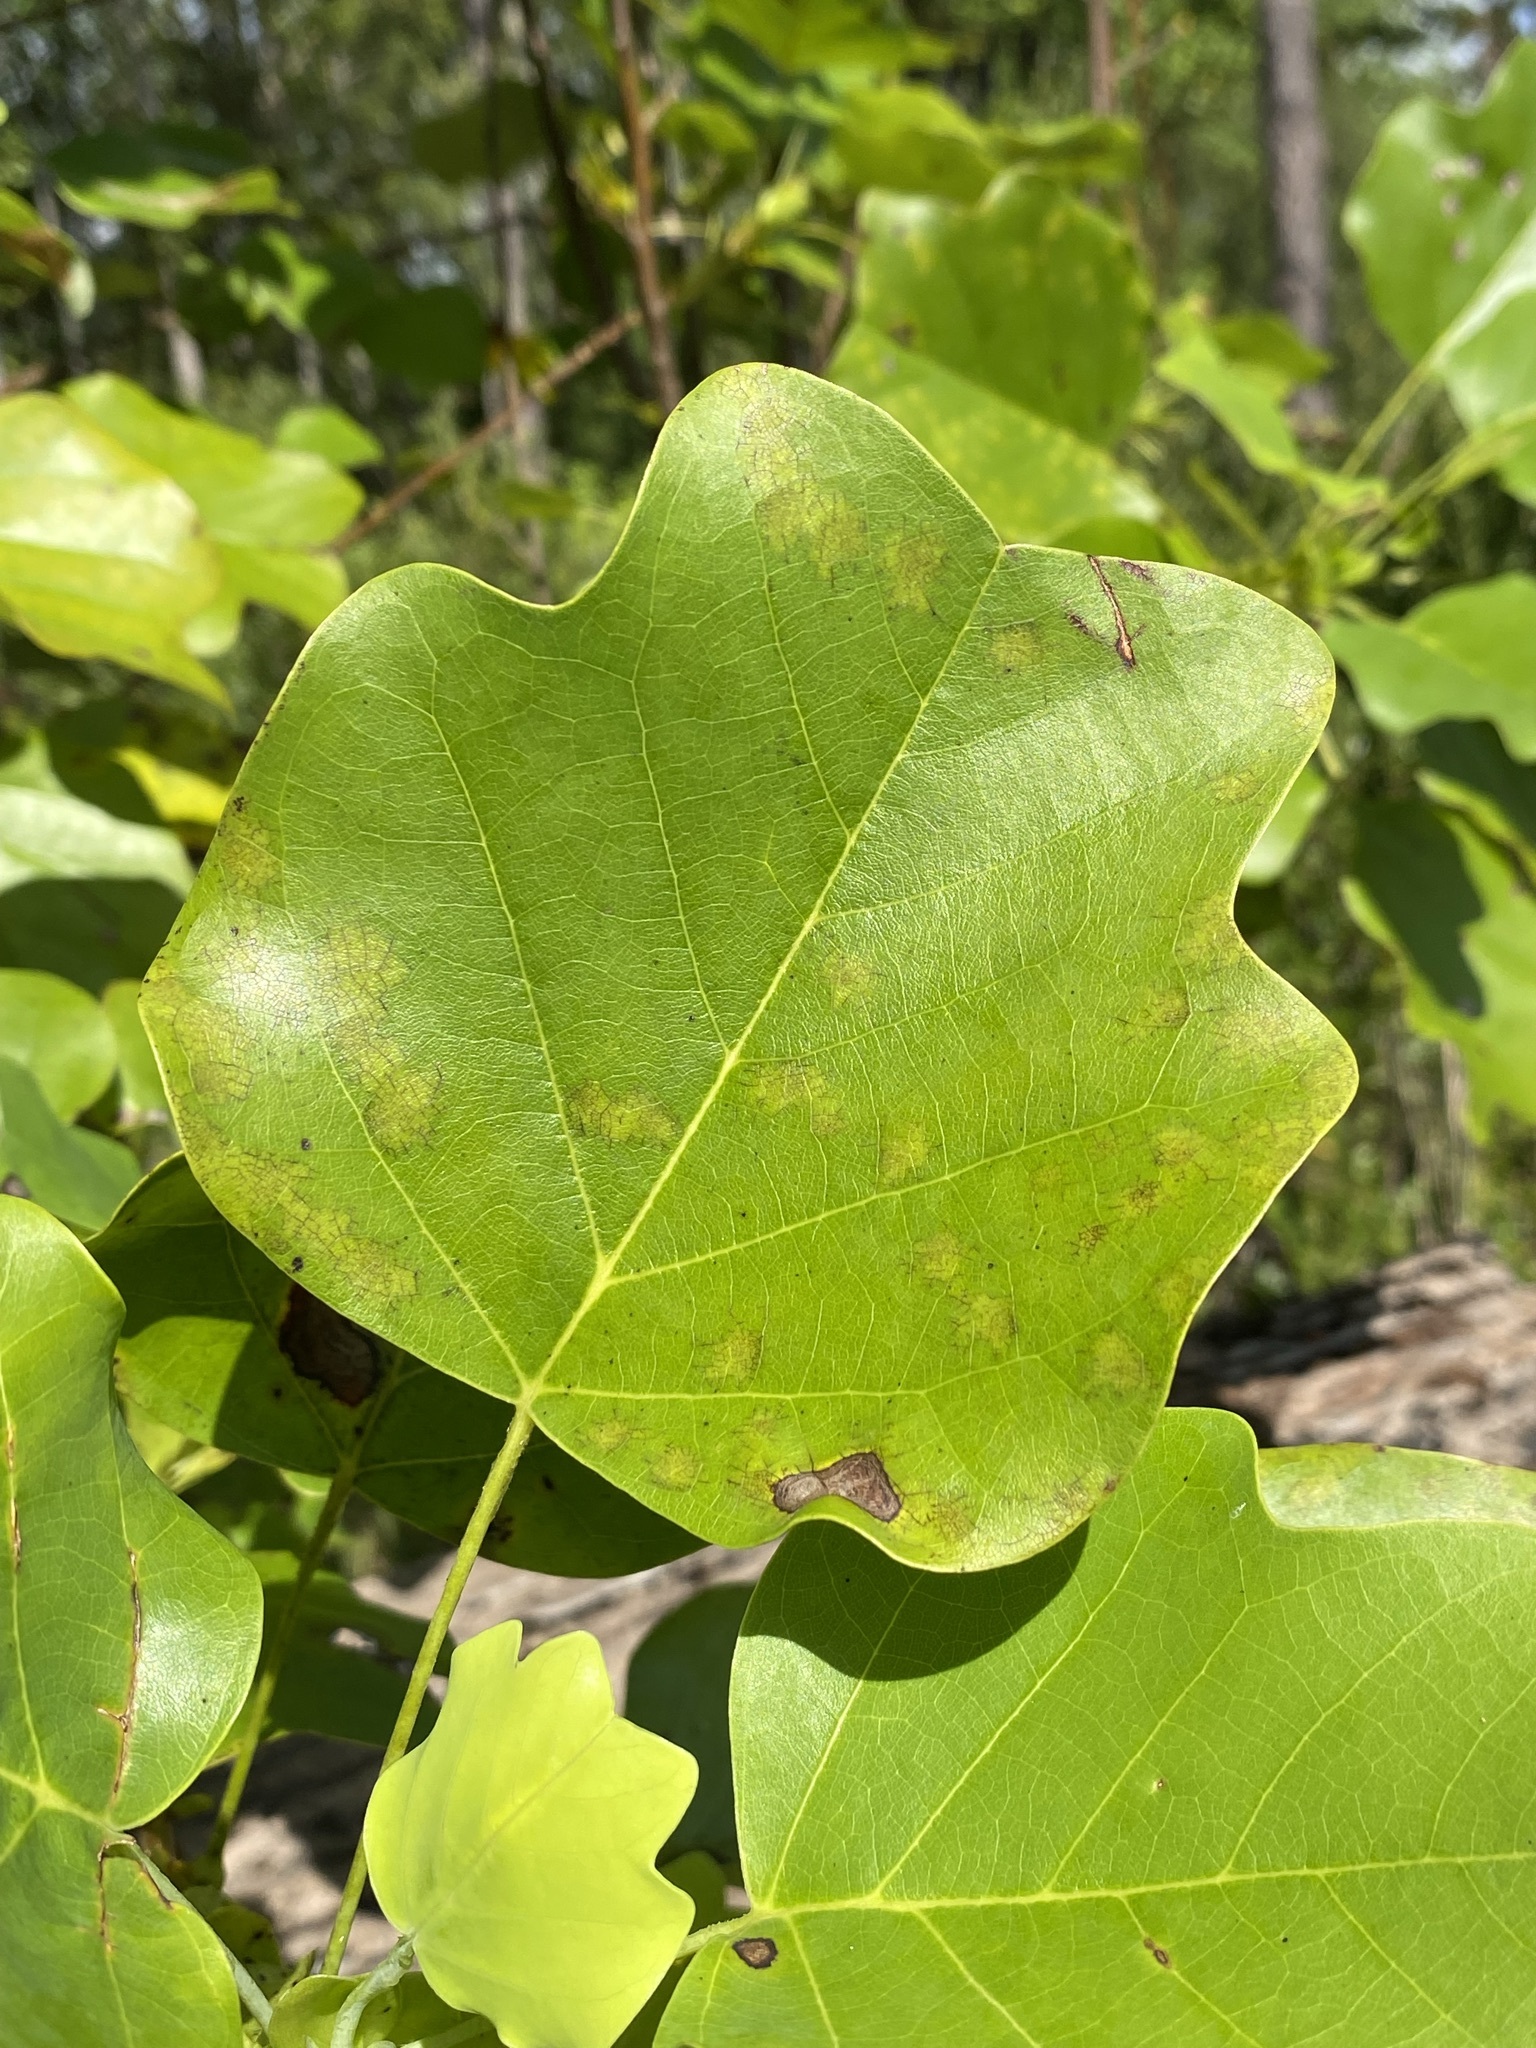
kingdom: Plantae
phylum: Tracheophyta
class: Magnoliopsida
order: Magnoliales
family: Magnoliaceae
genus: Liriodendron
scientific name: Liriodendron tulipifera
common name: Tulip tree
